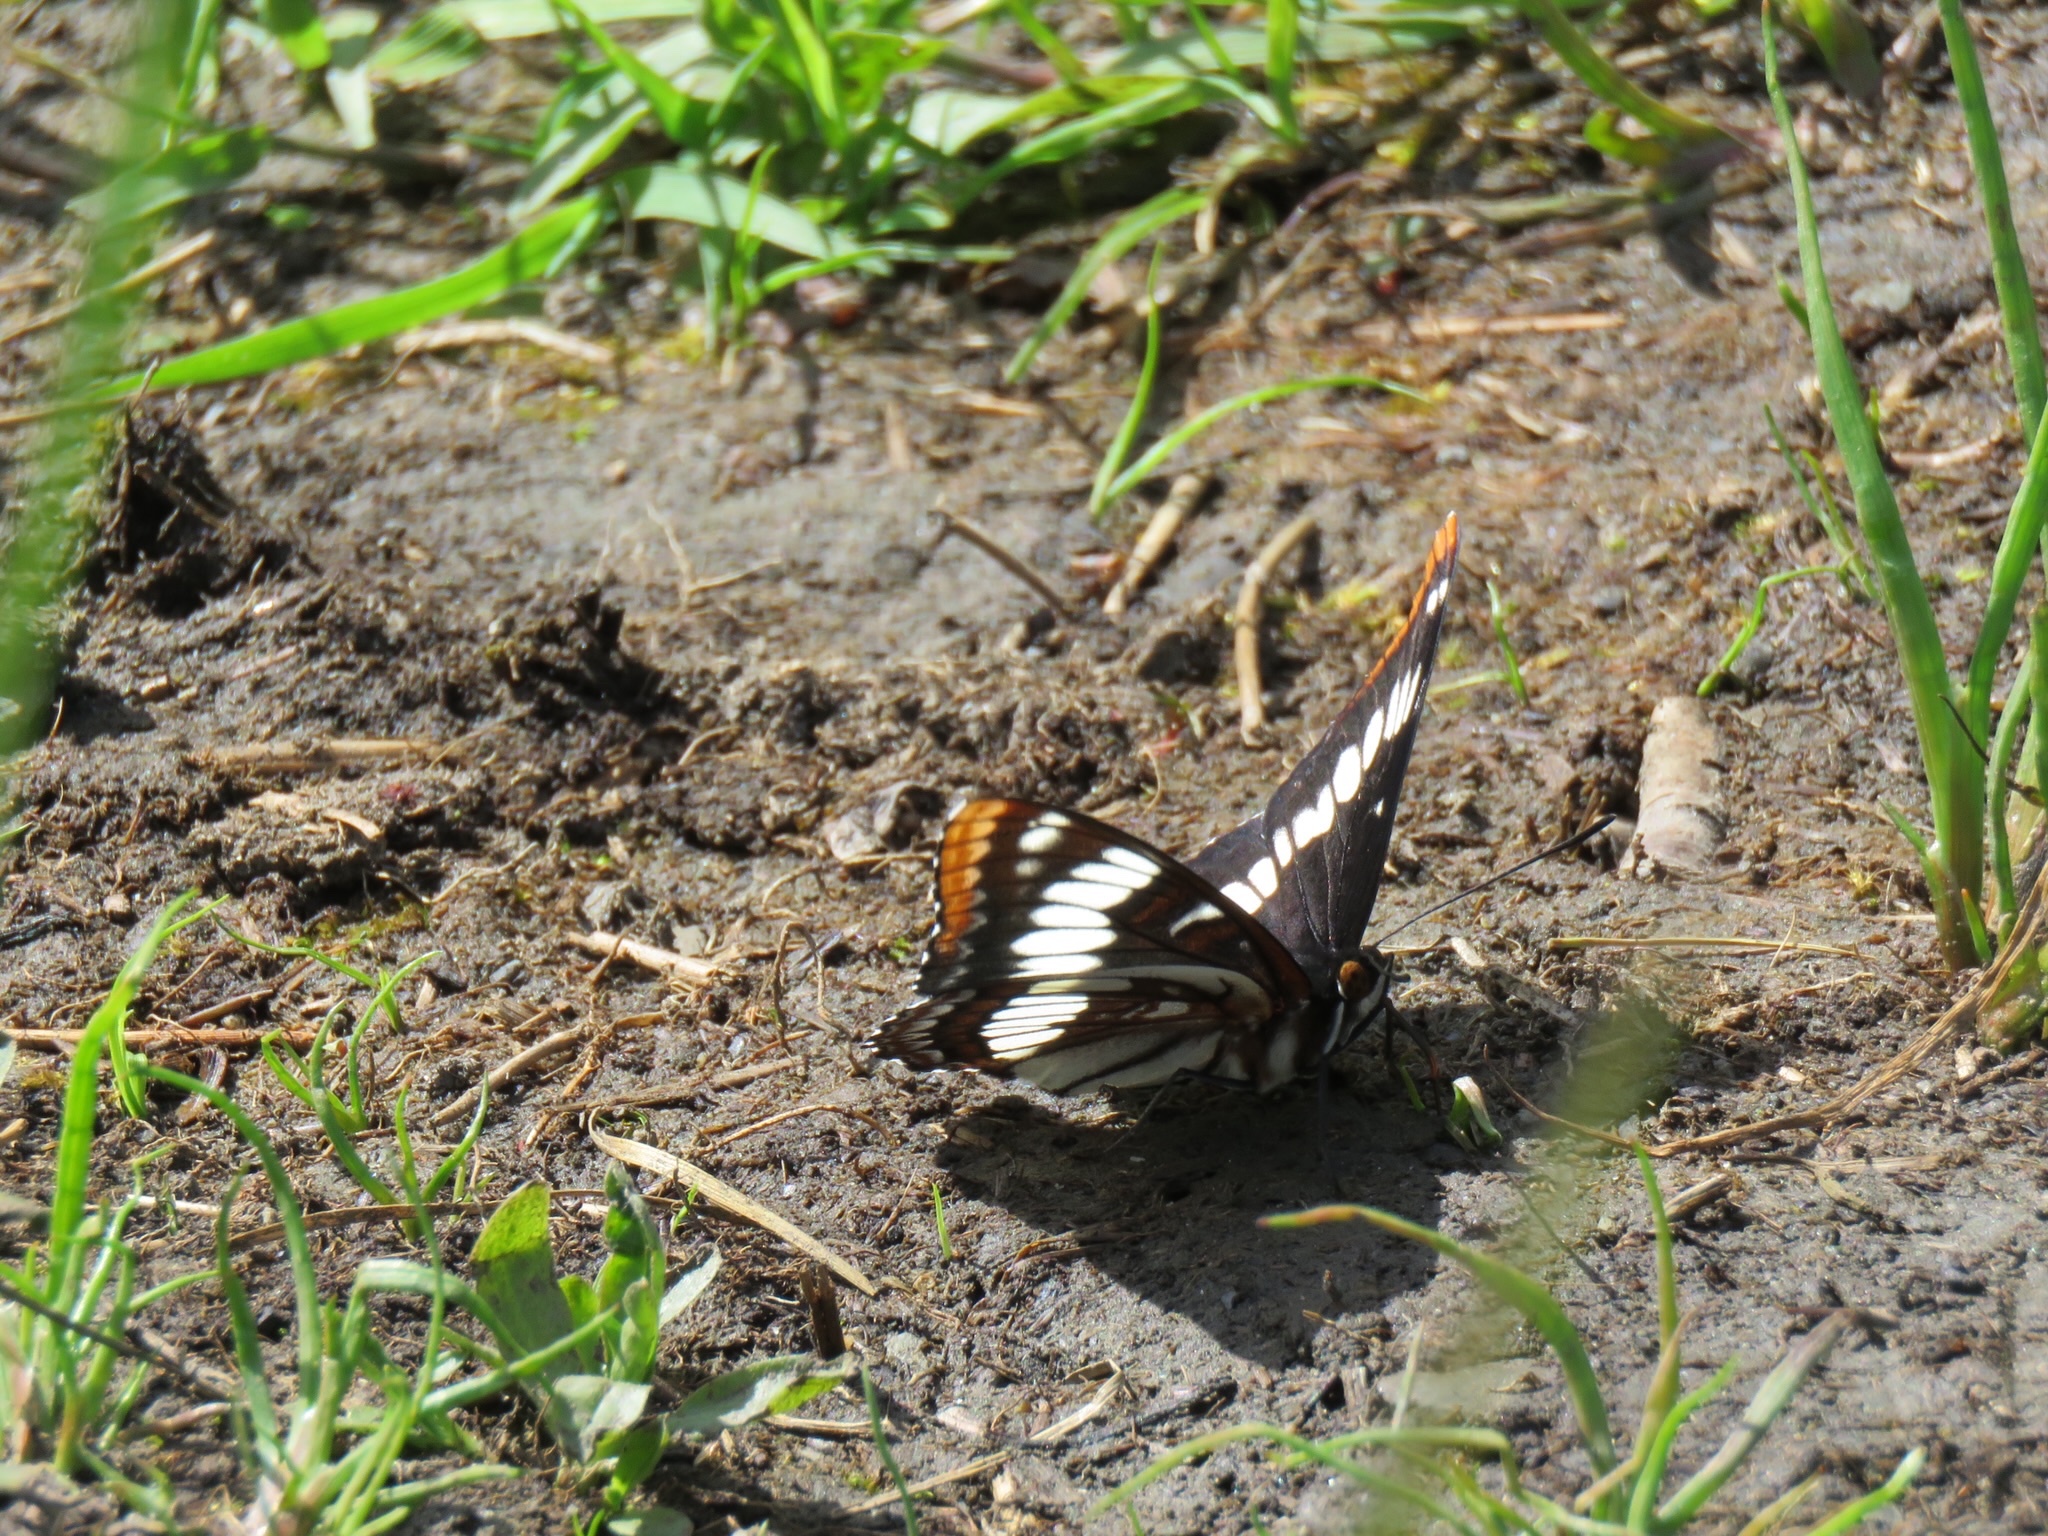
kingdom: Animalia
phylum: Arthropoda
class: Insecta
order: Lepidoptera
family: Nymphalidae
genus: Limenitis
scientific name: Limenitis lorquini
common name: Lorquin's admiral
